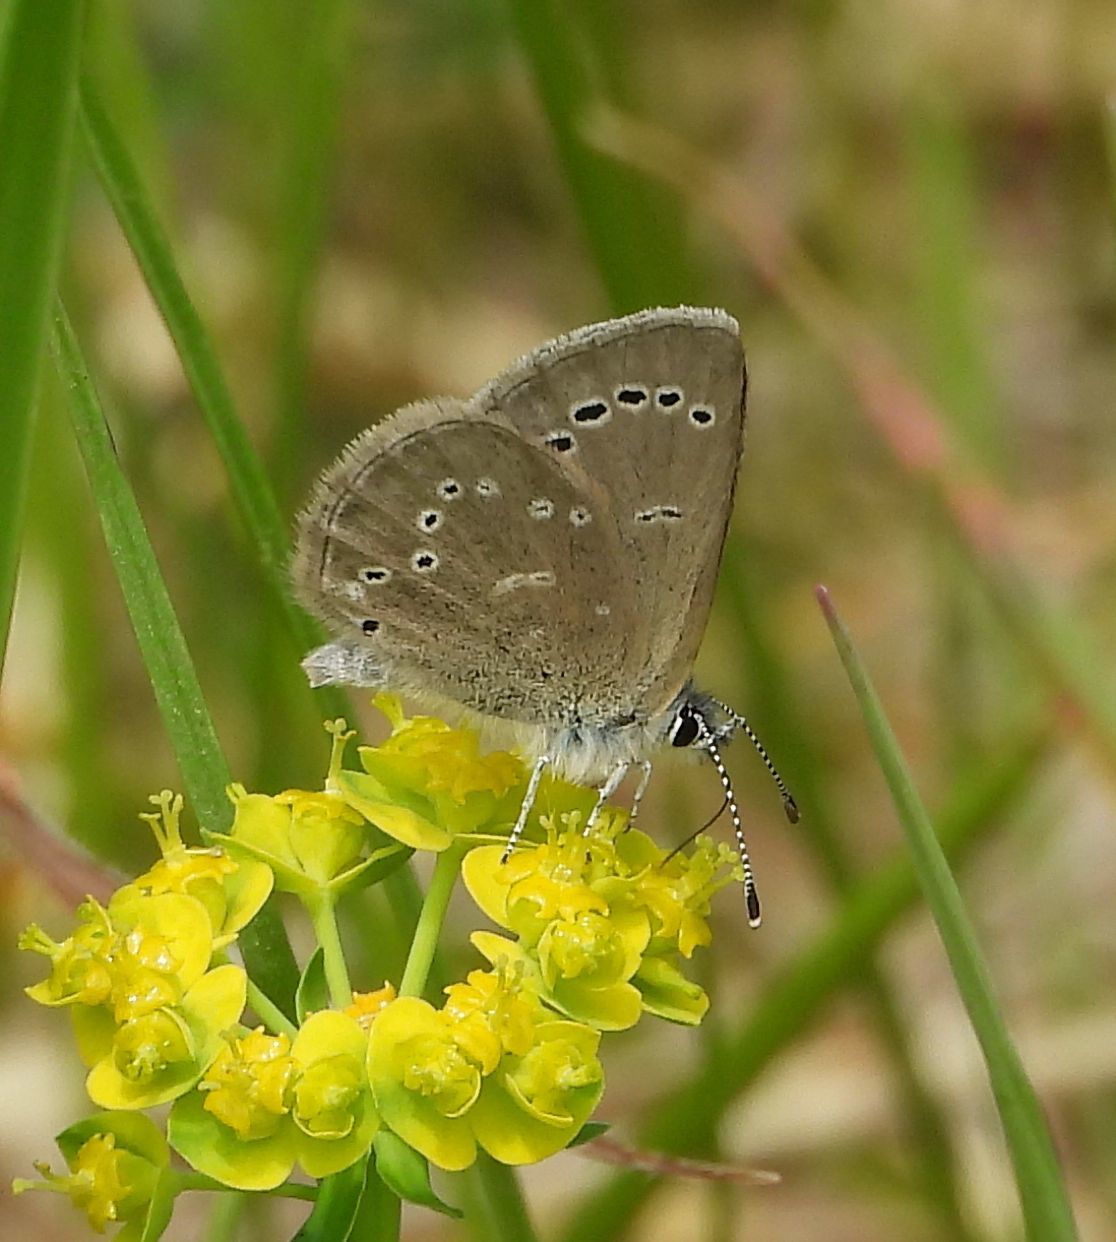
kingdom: Animalia
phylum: Arthropoda
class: Insecta
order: Lepidoptera
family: Lycaenidae
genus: Glaucopsyche
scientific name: Glaucopsyche lygdamus
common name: Silvery blue
